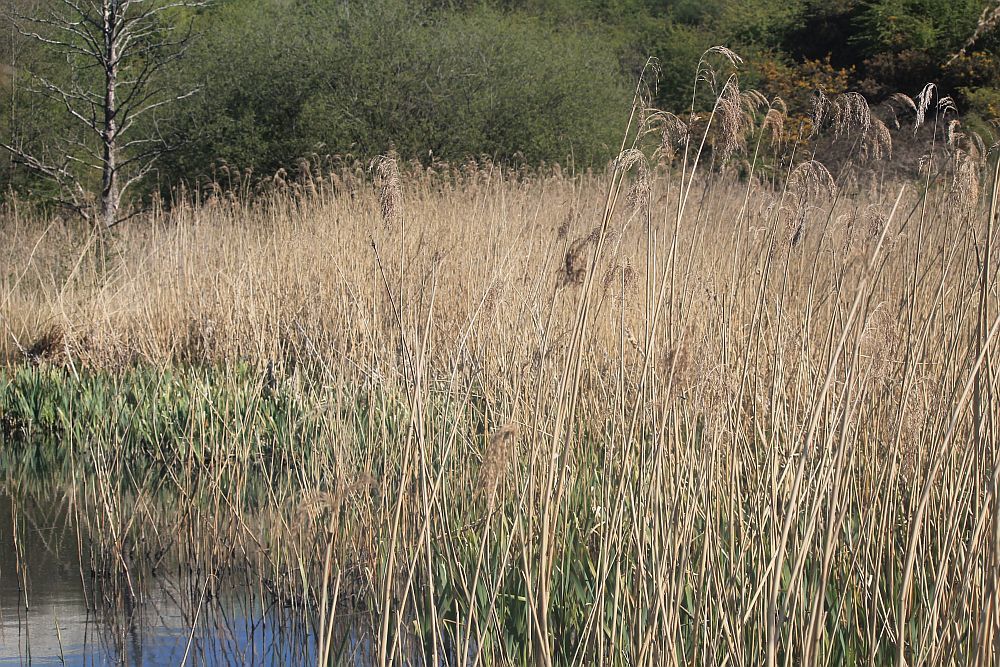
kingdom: Plantae
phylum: Tracheophyta
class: Liliopsida
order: Poales
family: Poaceae
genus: Phragmites
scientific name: Phragmites australis
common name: Common reed
